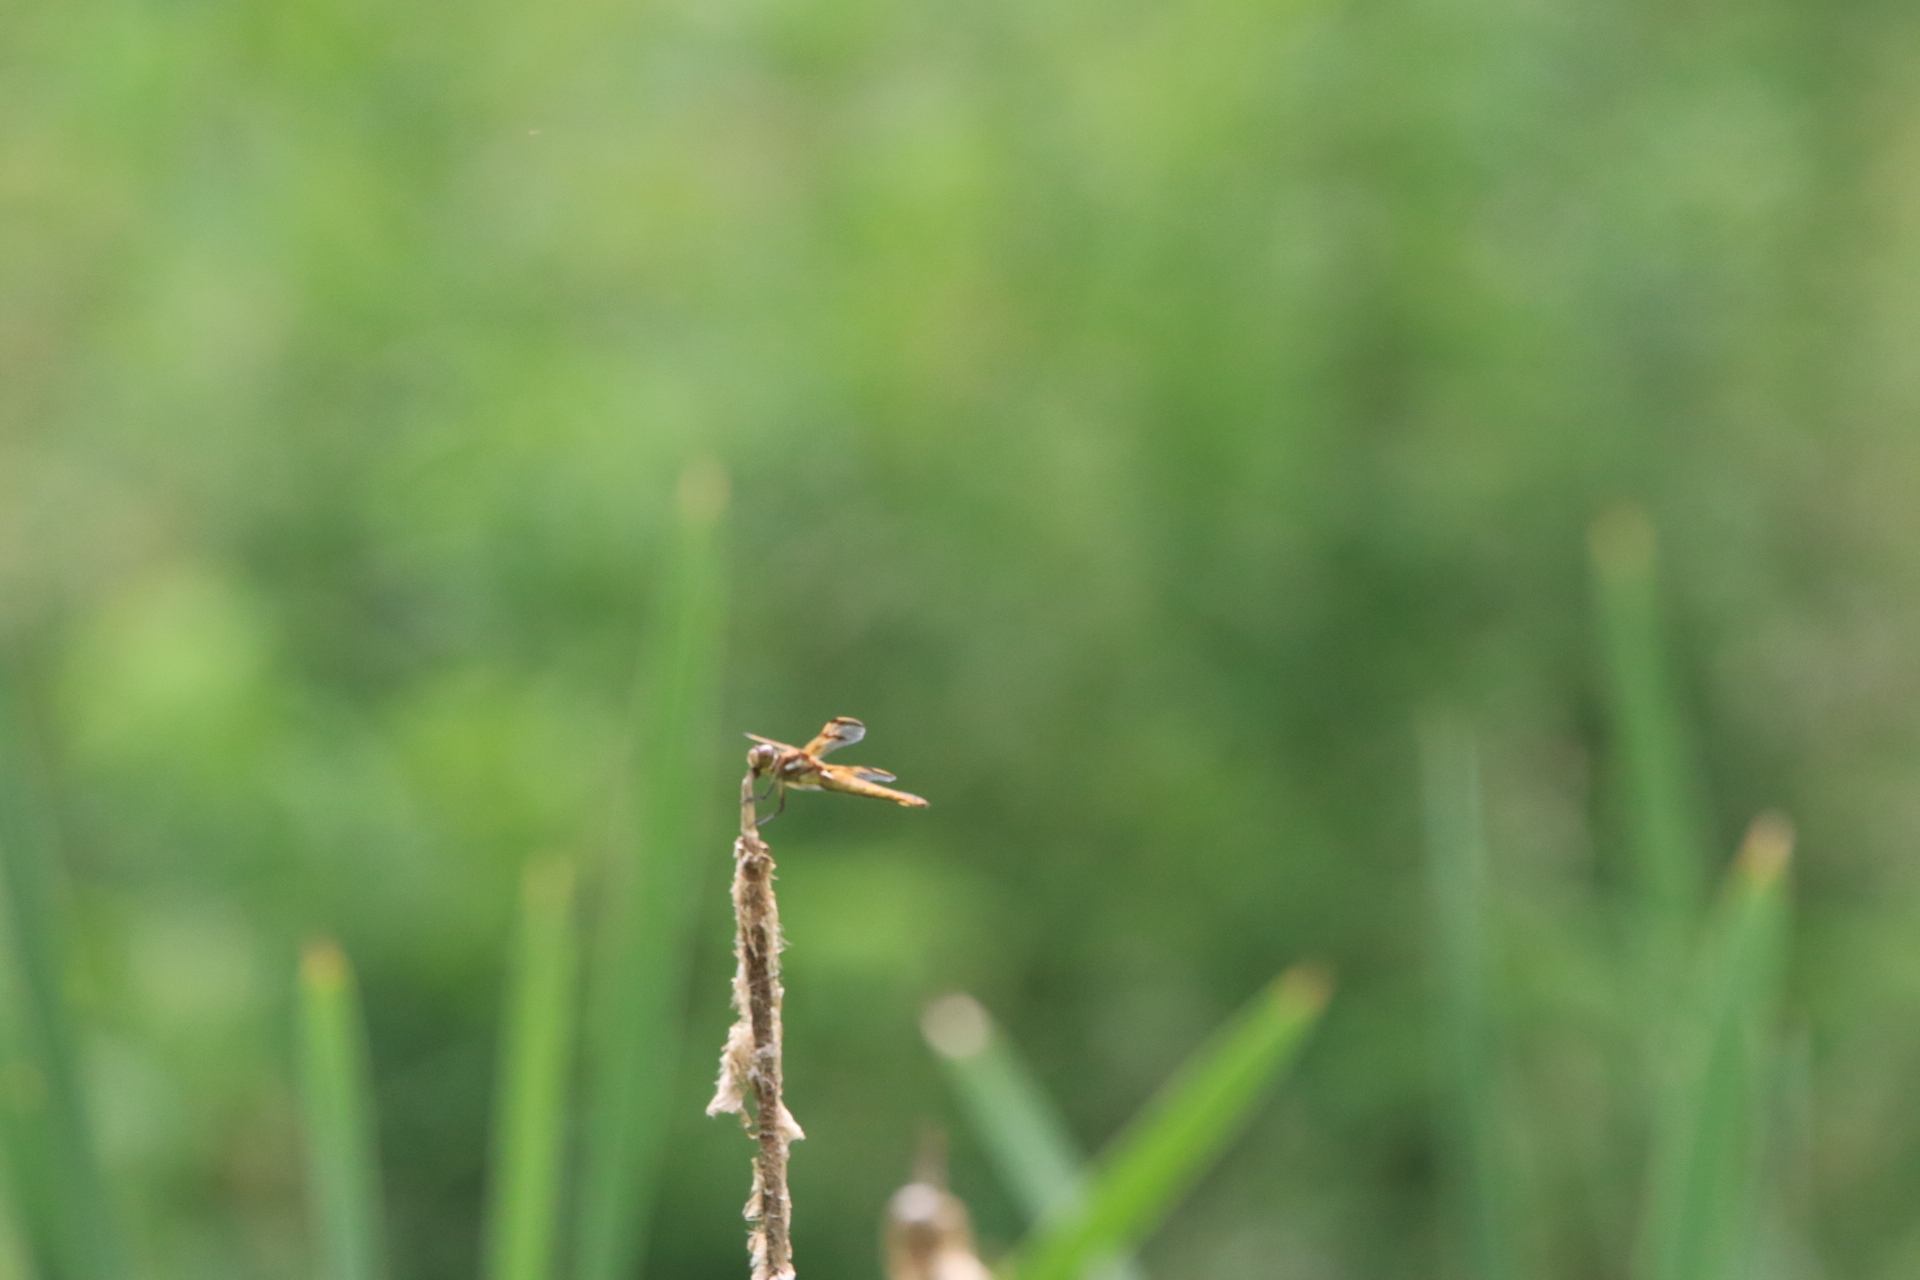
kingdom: Animalia
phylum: Arthropoda
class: Insecta
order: Odonata
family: Libellulidae
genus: Libellula
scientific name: Libellula semifasciata
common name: Painted skimmer
